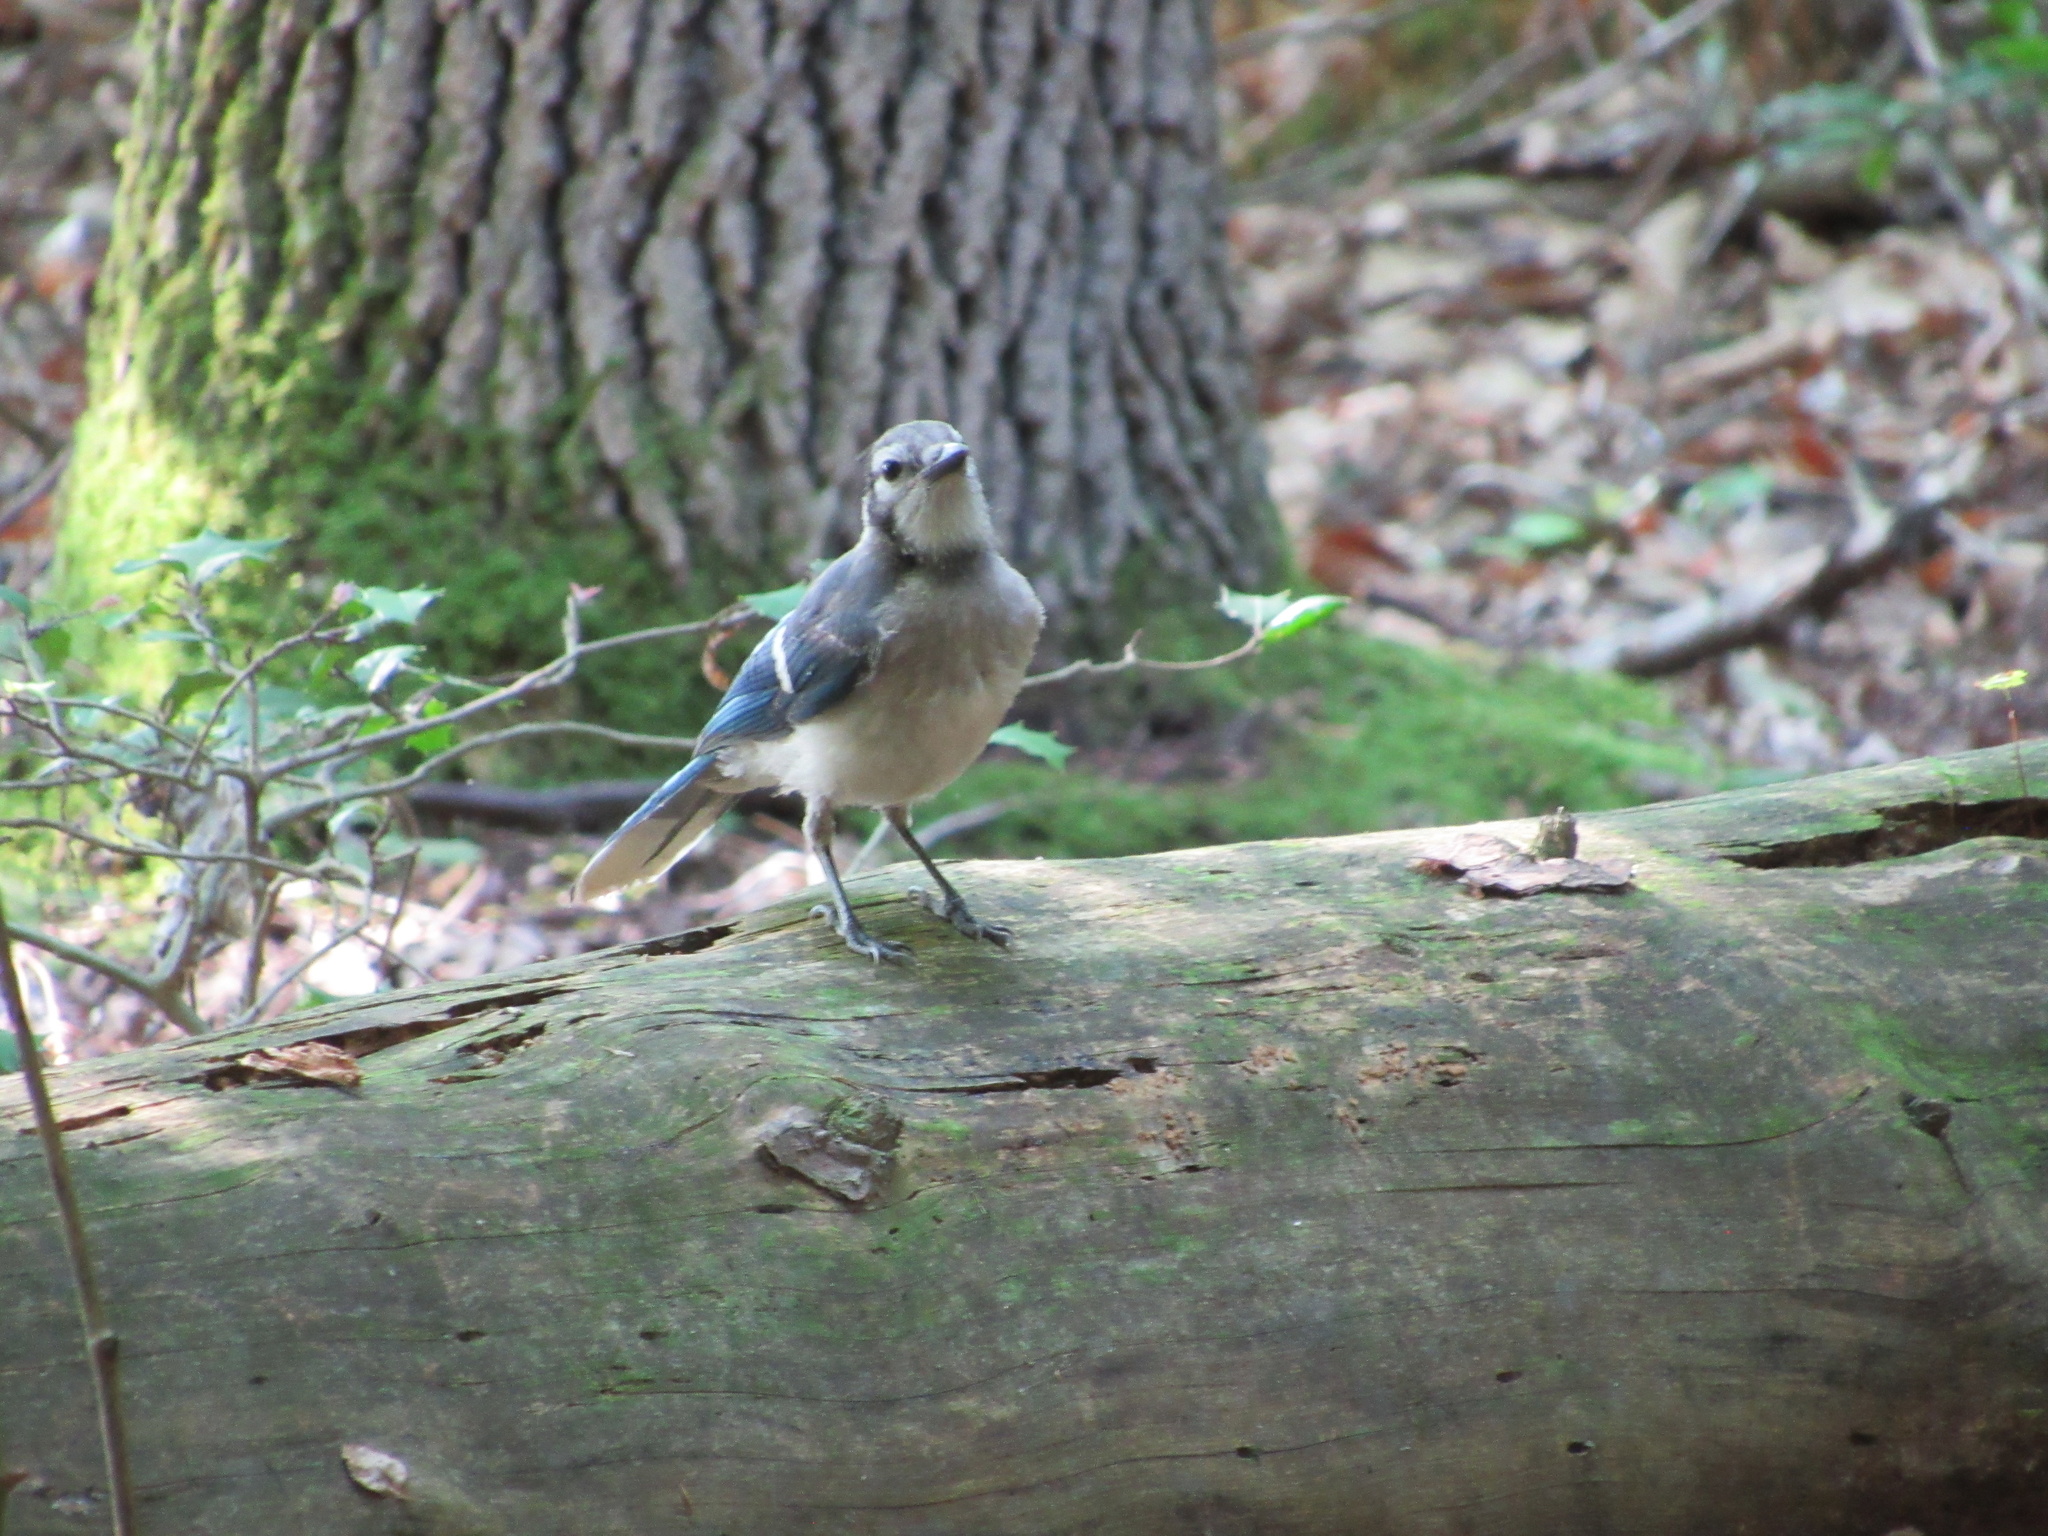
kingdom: Animalia
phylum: Chordata
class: Aves
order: Passeriformes
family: Corvidae
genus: Cyanocitta
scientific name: Cyanocitta cristata
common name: Blue jay
